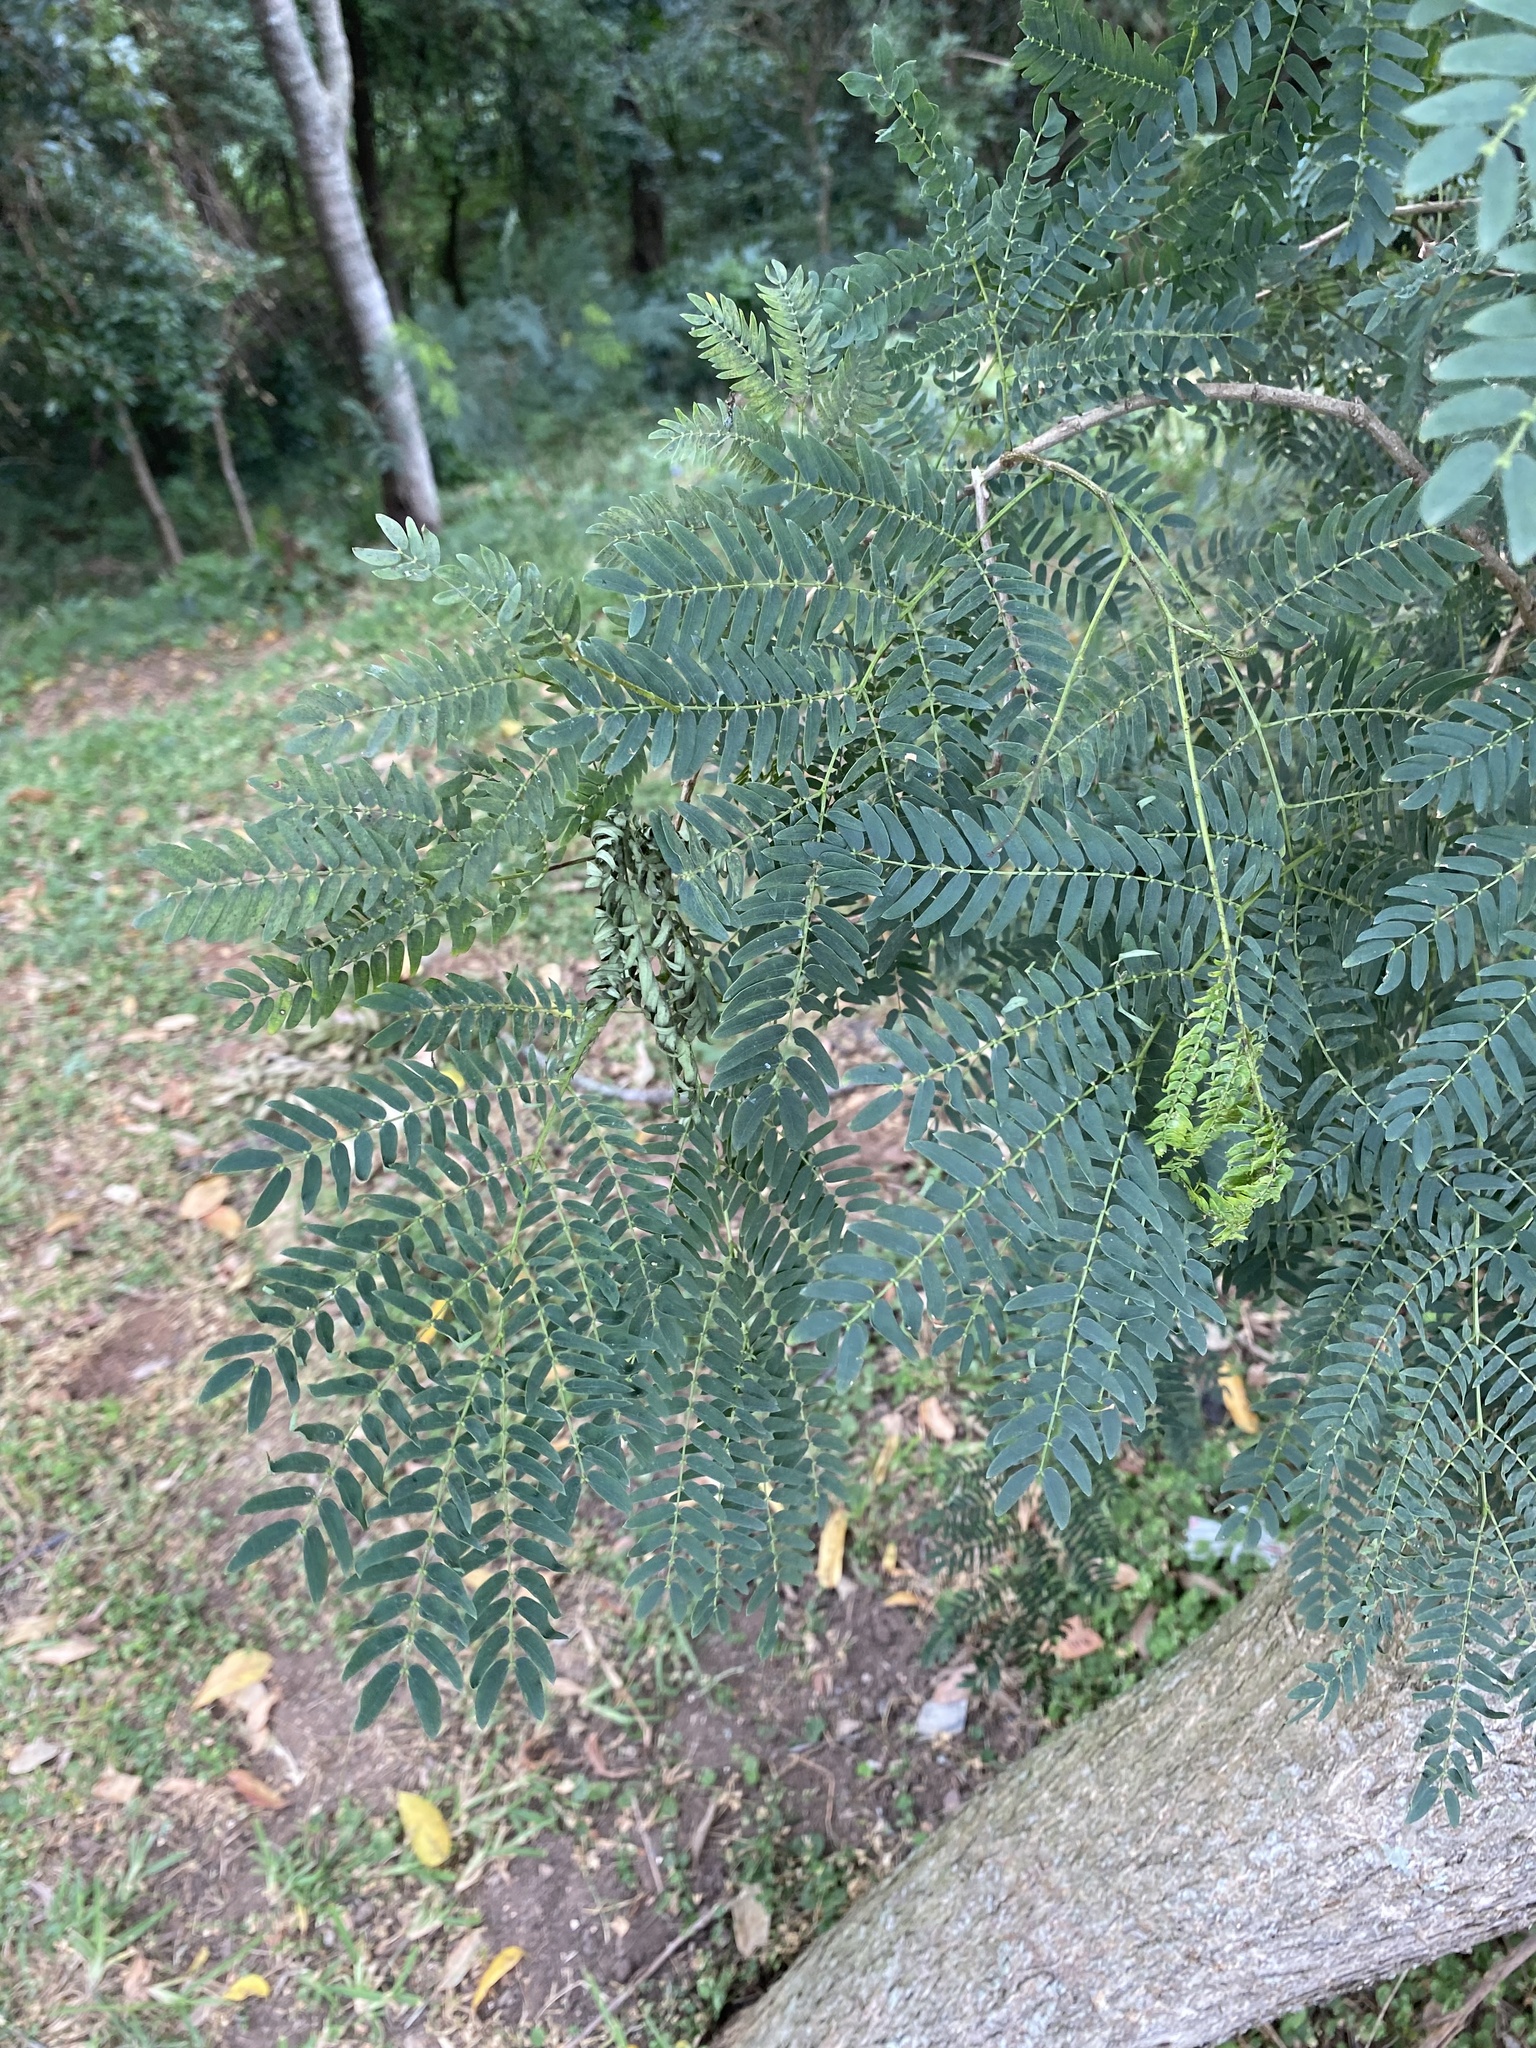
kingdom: Plantae
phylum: Tracheophyta
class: Magnoliopsida
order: Fabales
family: Fabaceae
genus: Leucaena
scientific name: Leucaena leucocephala
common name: White leadtree
